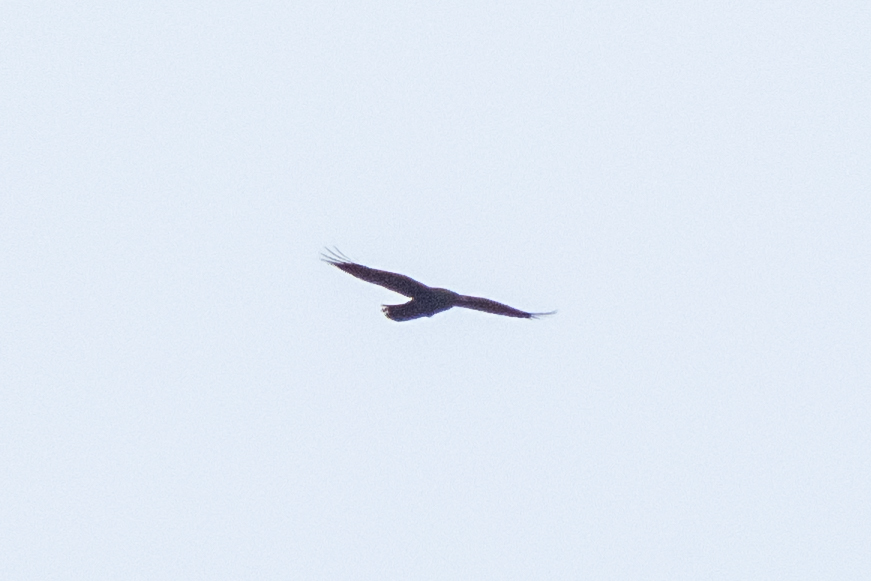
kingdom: Animalia
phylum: Chordata
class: Aves
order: Passeriformes
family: Corvidae
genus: Corvus
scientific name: Corvus corax
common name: Common raven
